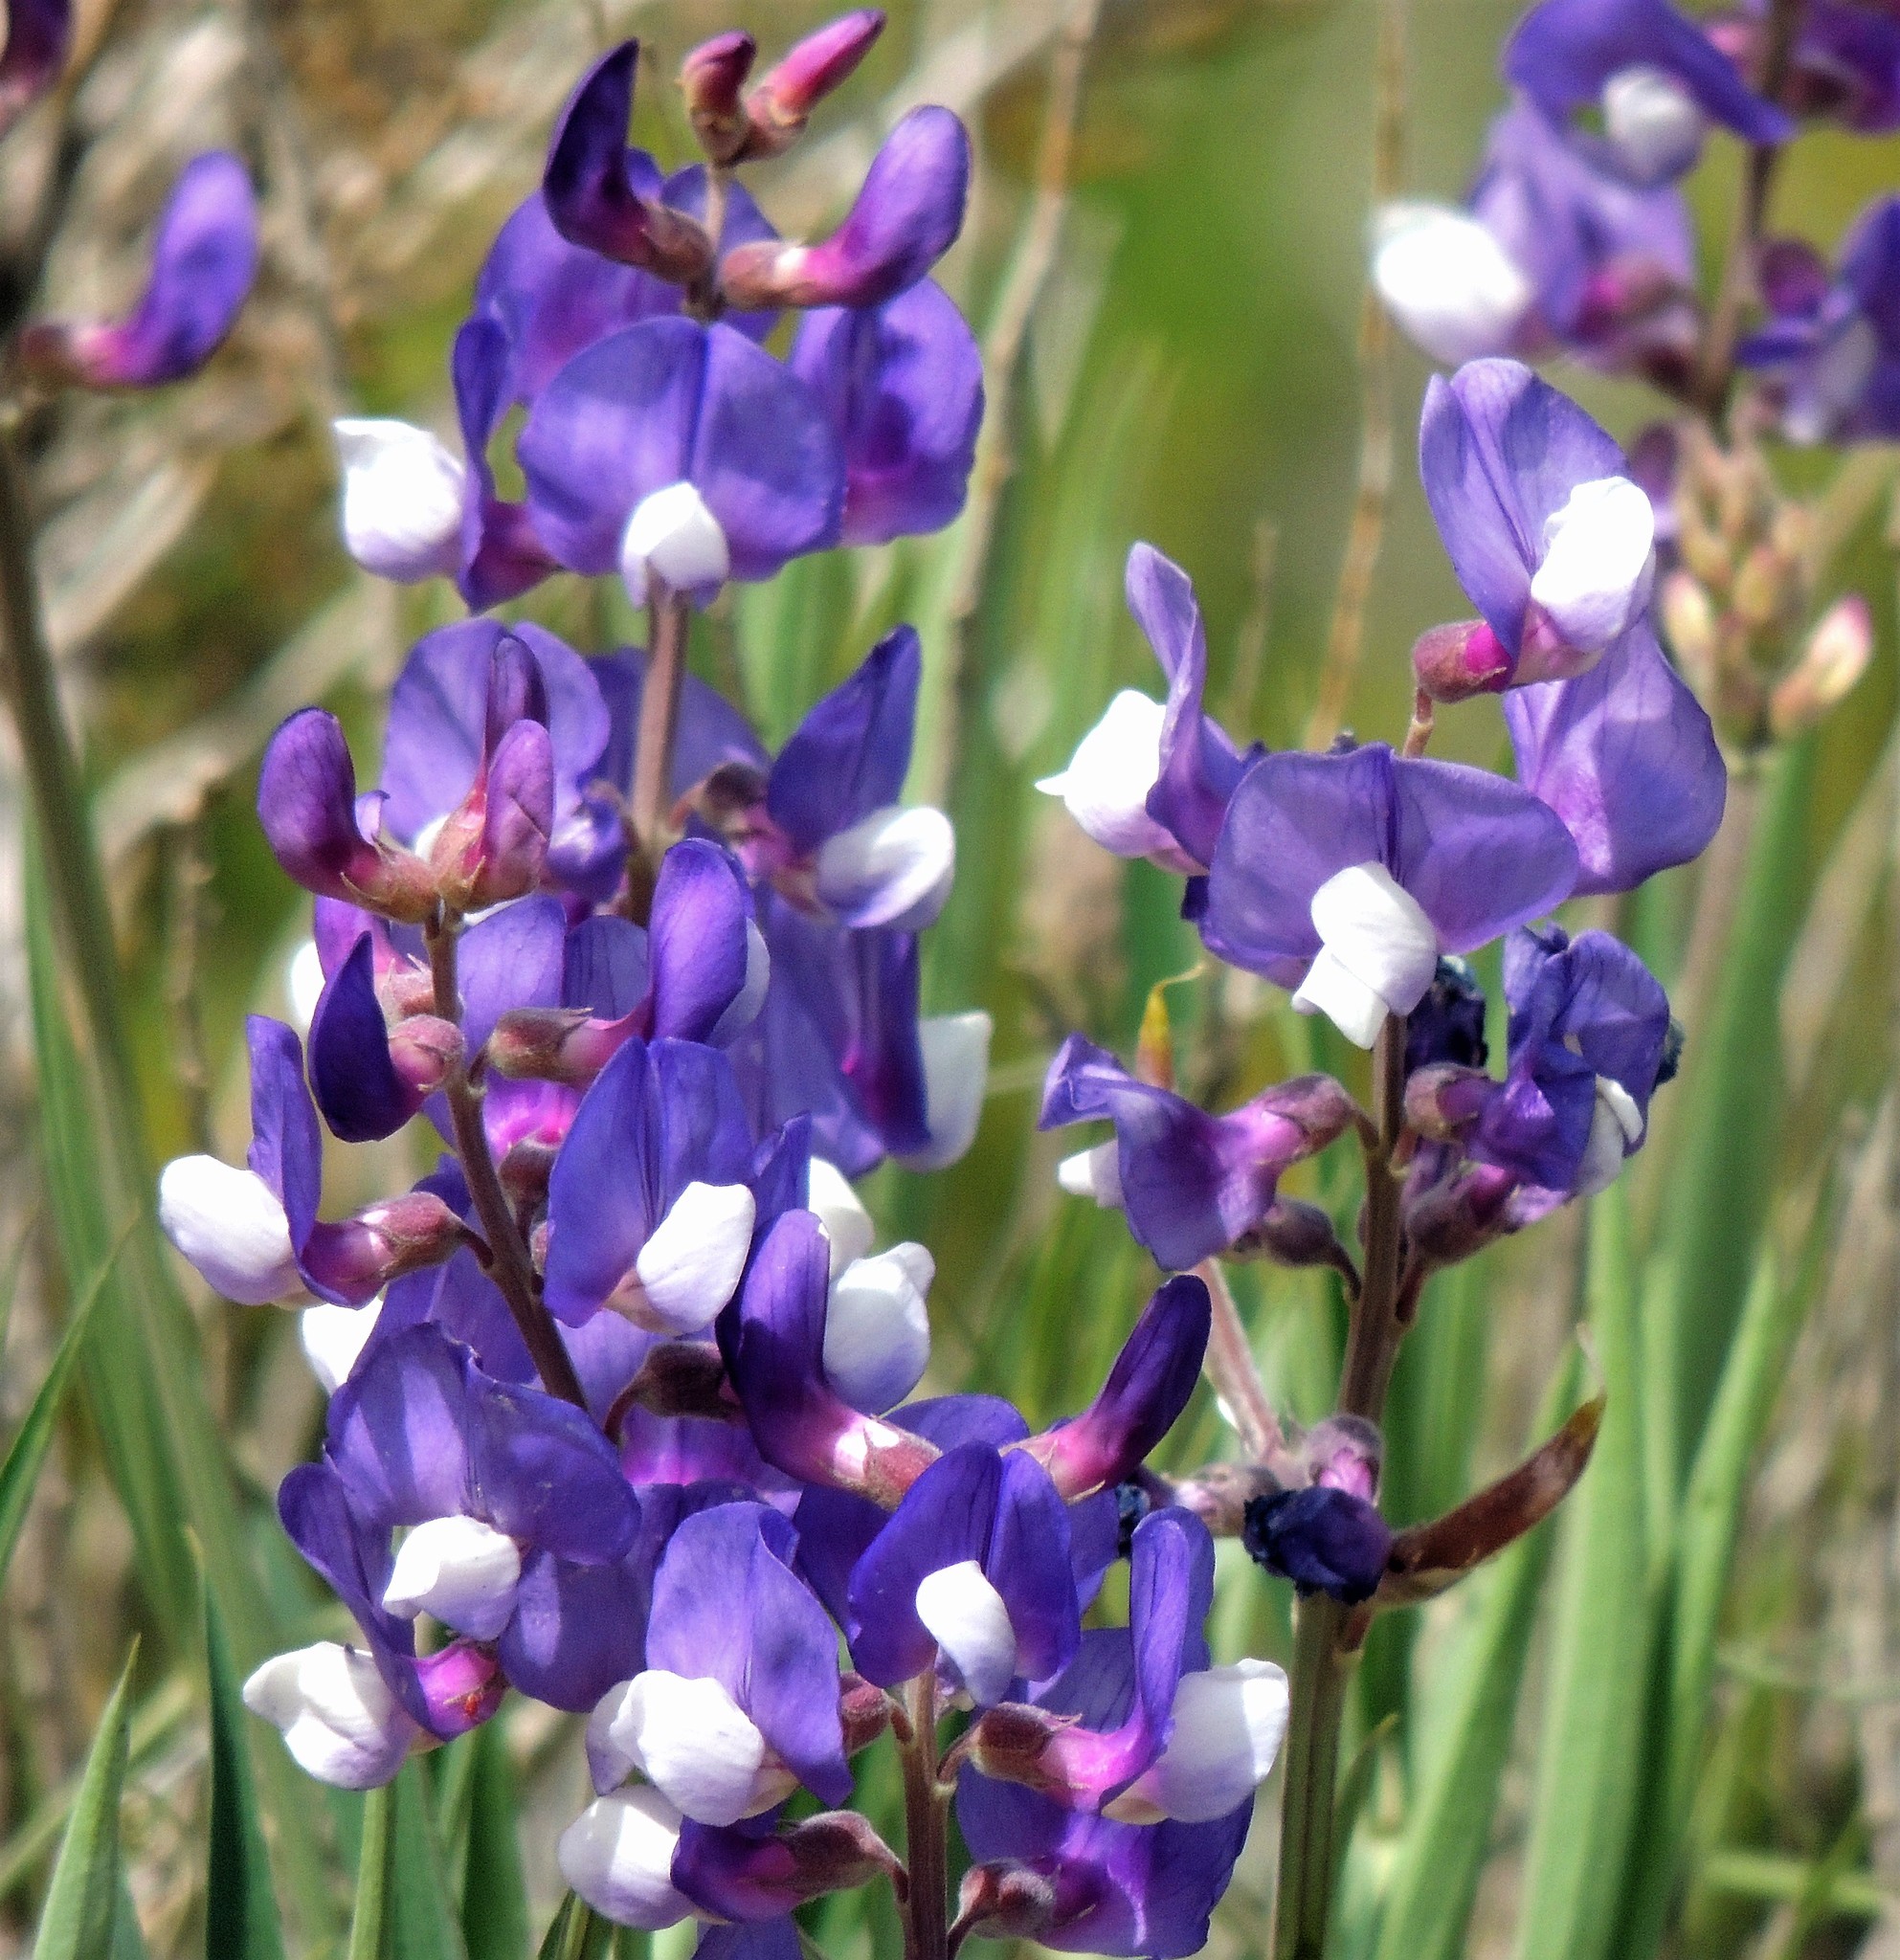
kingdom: Plantae
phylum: Tracheophyta
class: Magnoliopsida
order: Fabales
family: Fabaceae
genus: Lathyrus
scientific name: Lathyrus magellanicus
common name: Lord anson's pea
